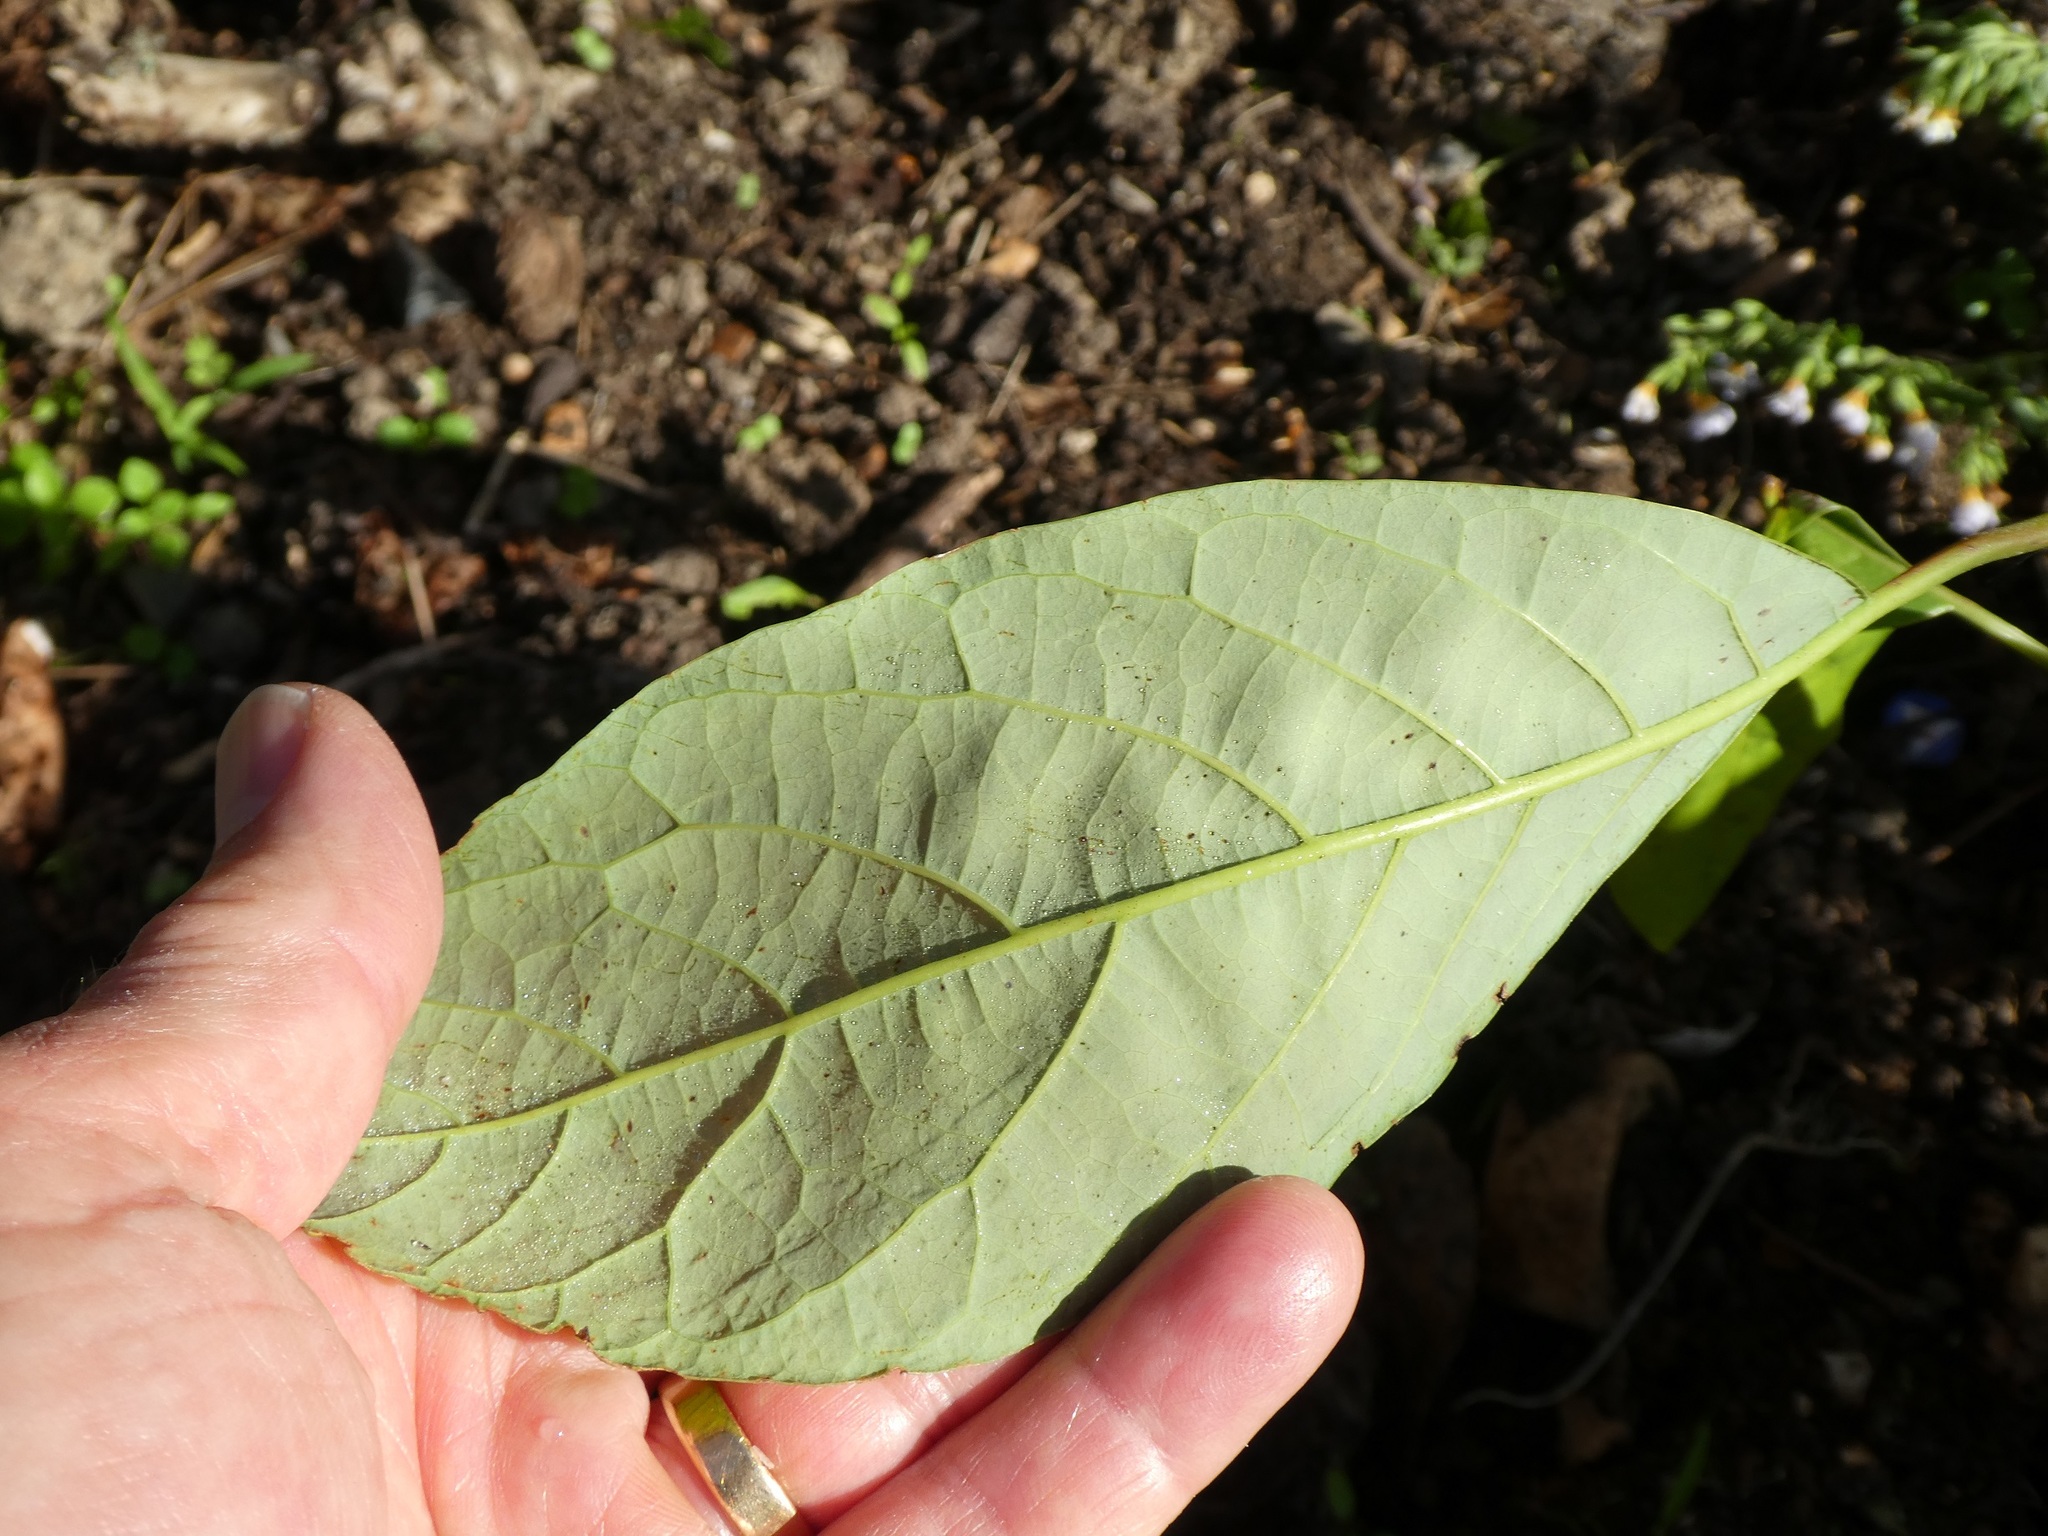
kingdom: Plantae
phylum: Tracheophyta
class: Magnoliopsida
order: Laurales
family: Lauraceae
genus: Persea
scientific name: Persea americana
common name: Avocado
